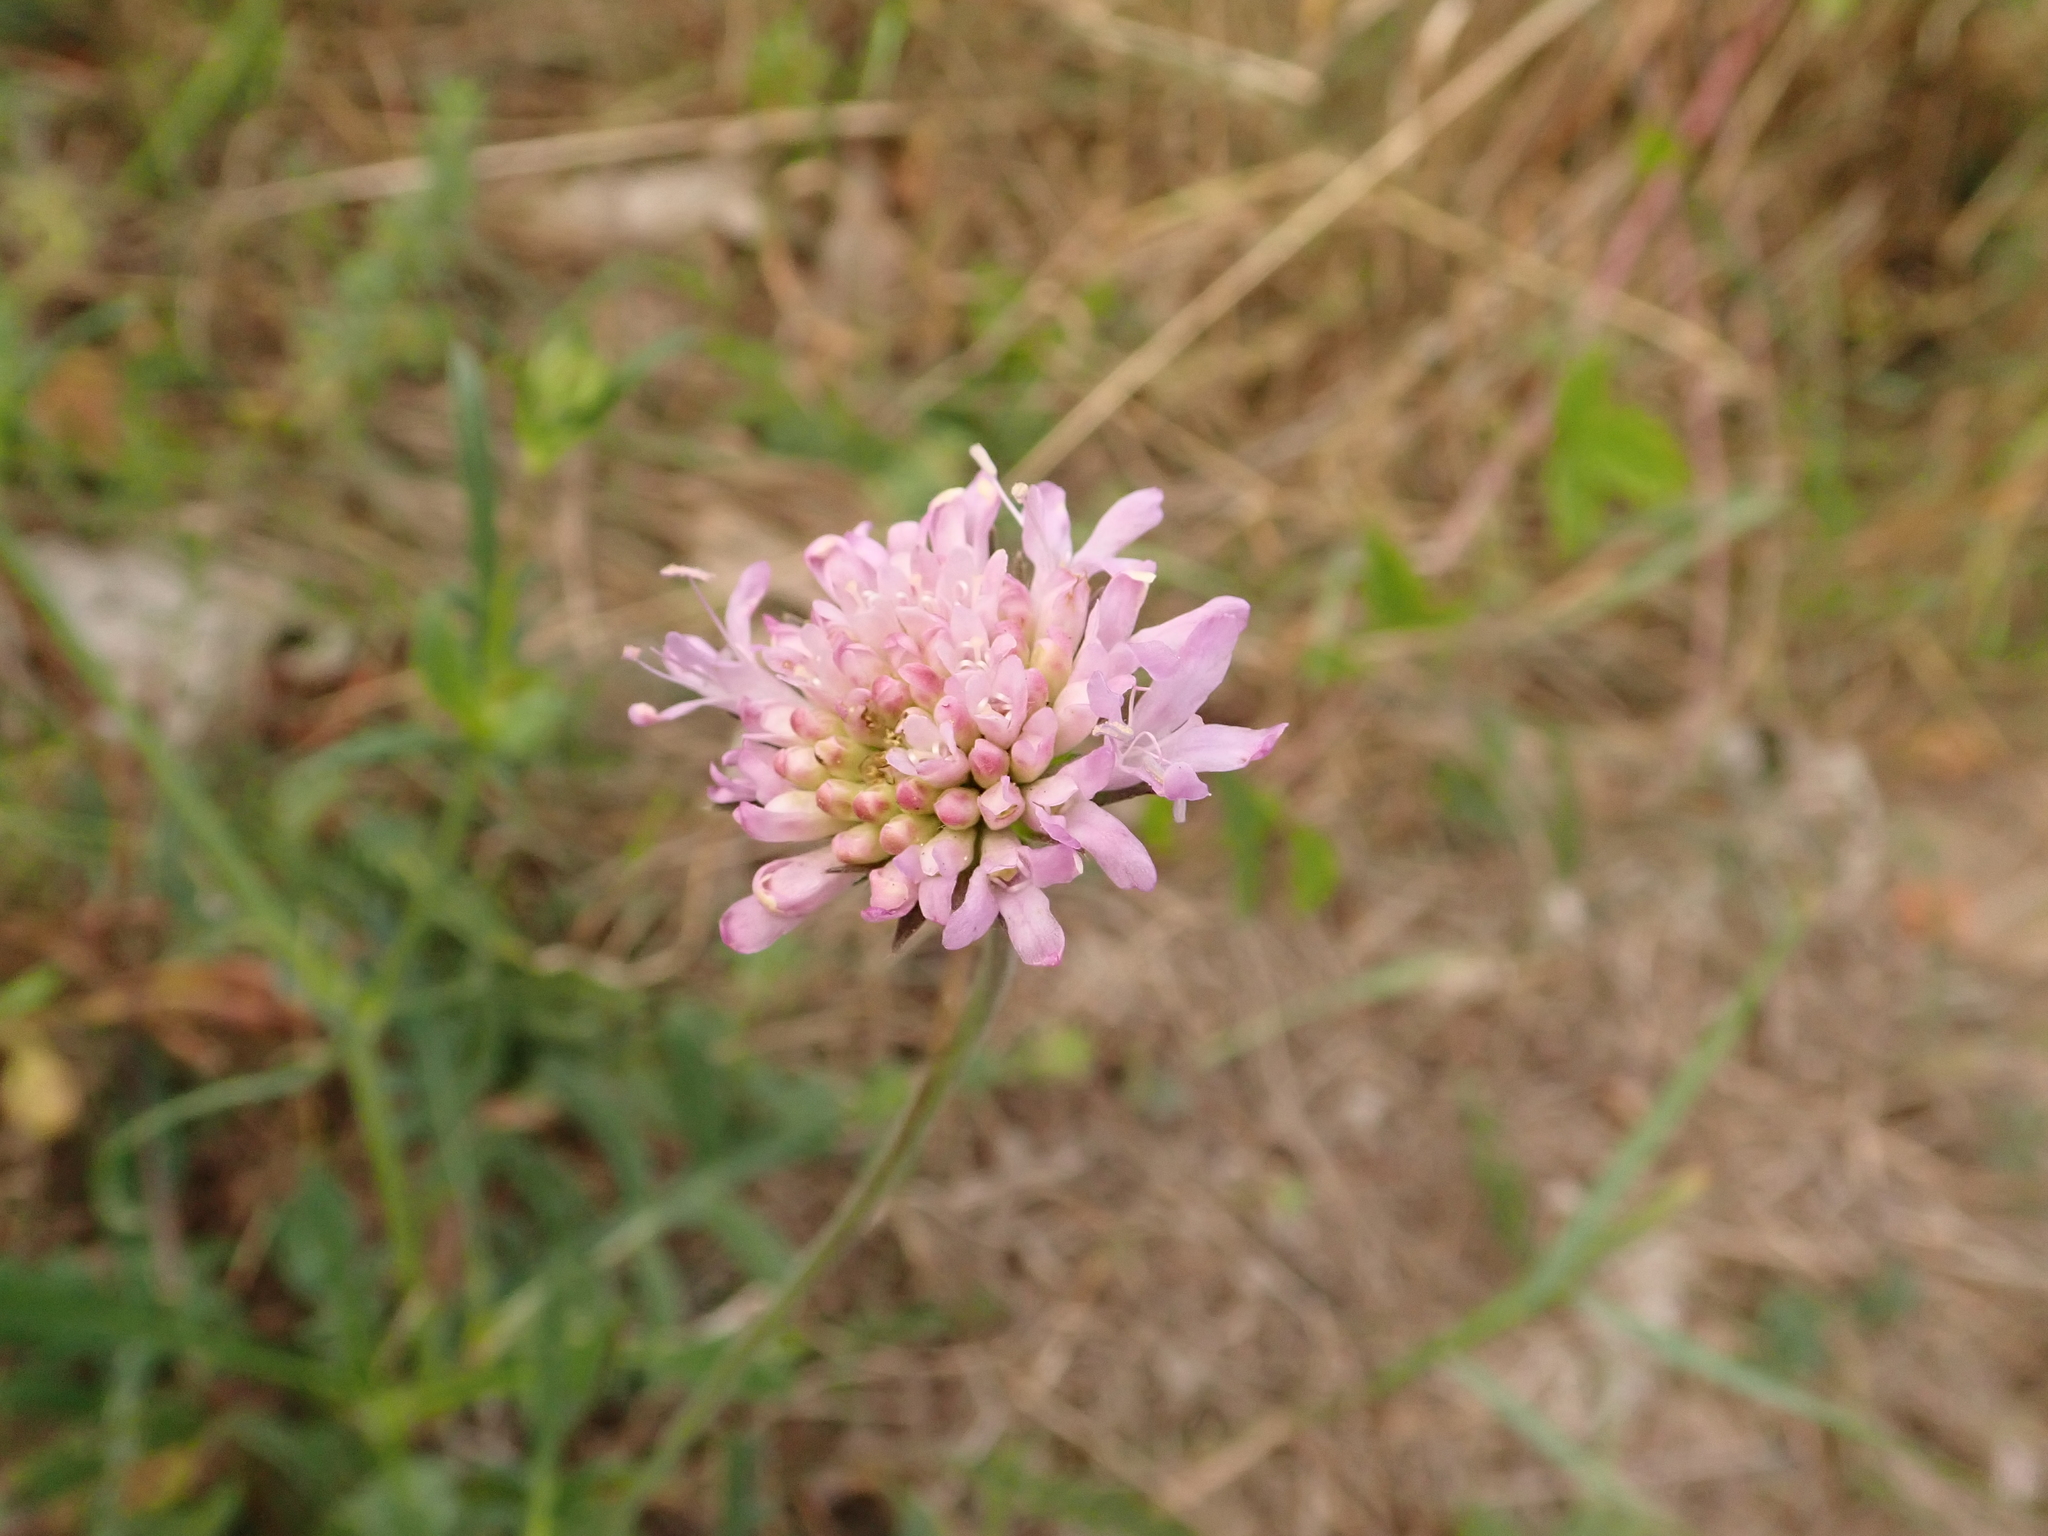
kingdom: Plantae
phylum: Tracheophyta
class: Magnoliopsida
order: Dipsacales
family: Caprifoliaceae
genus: Knautia
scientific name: Knautia arvensis
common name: Field scabiosa
